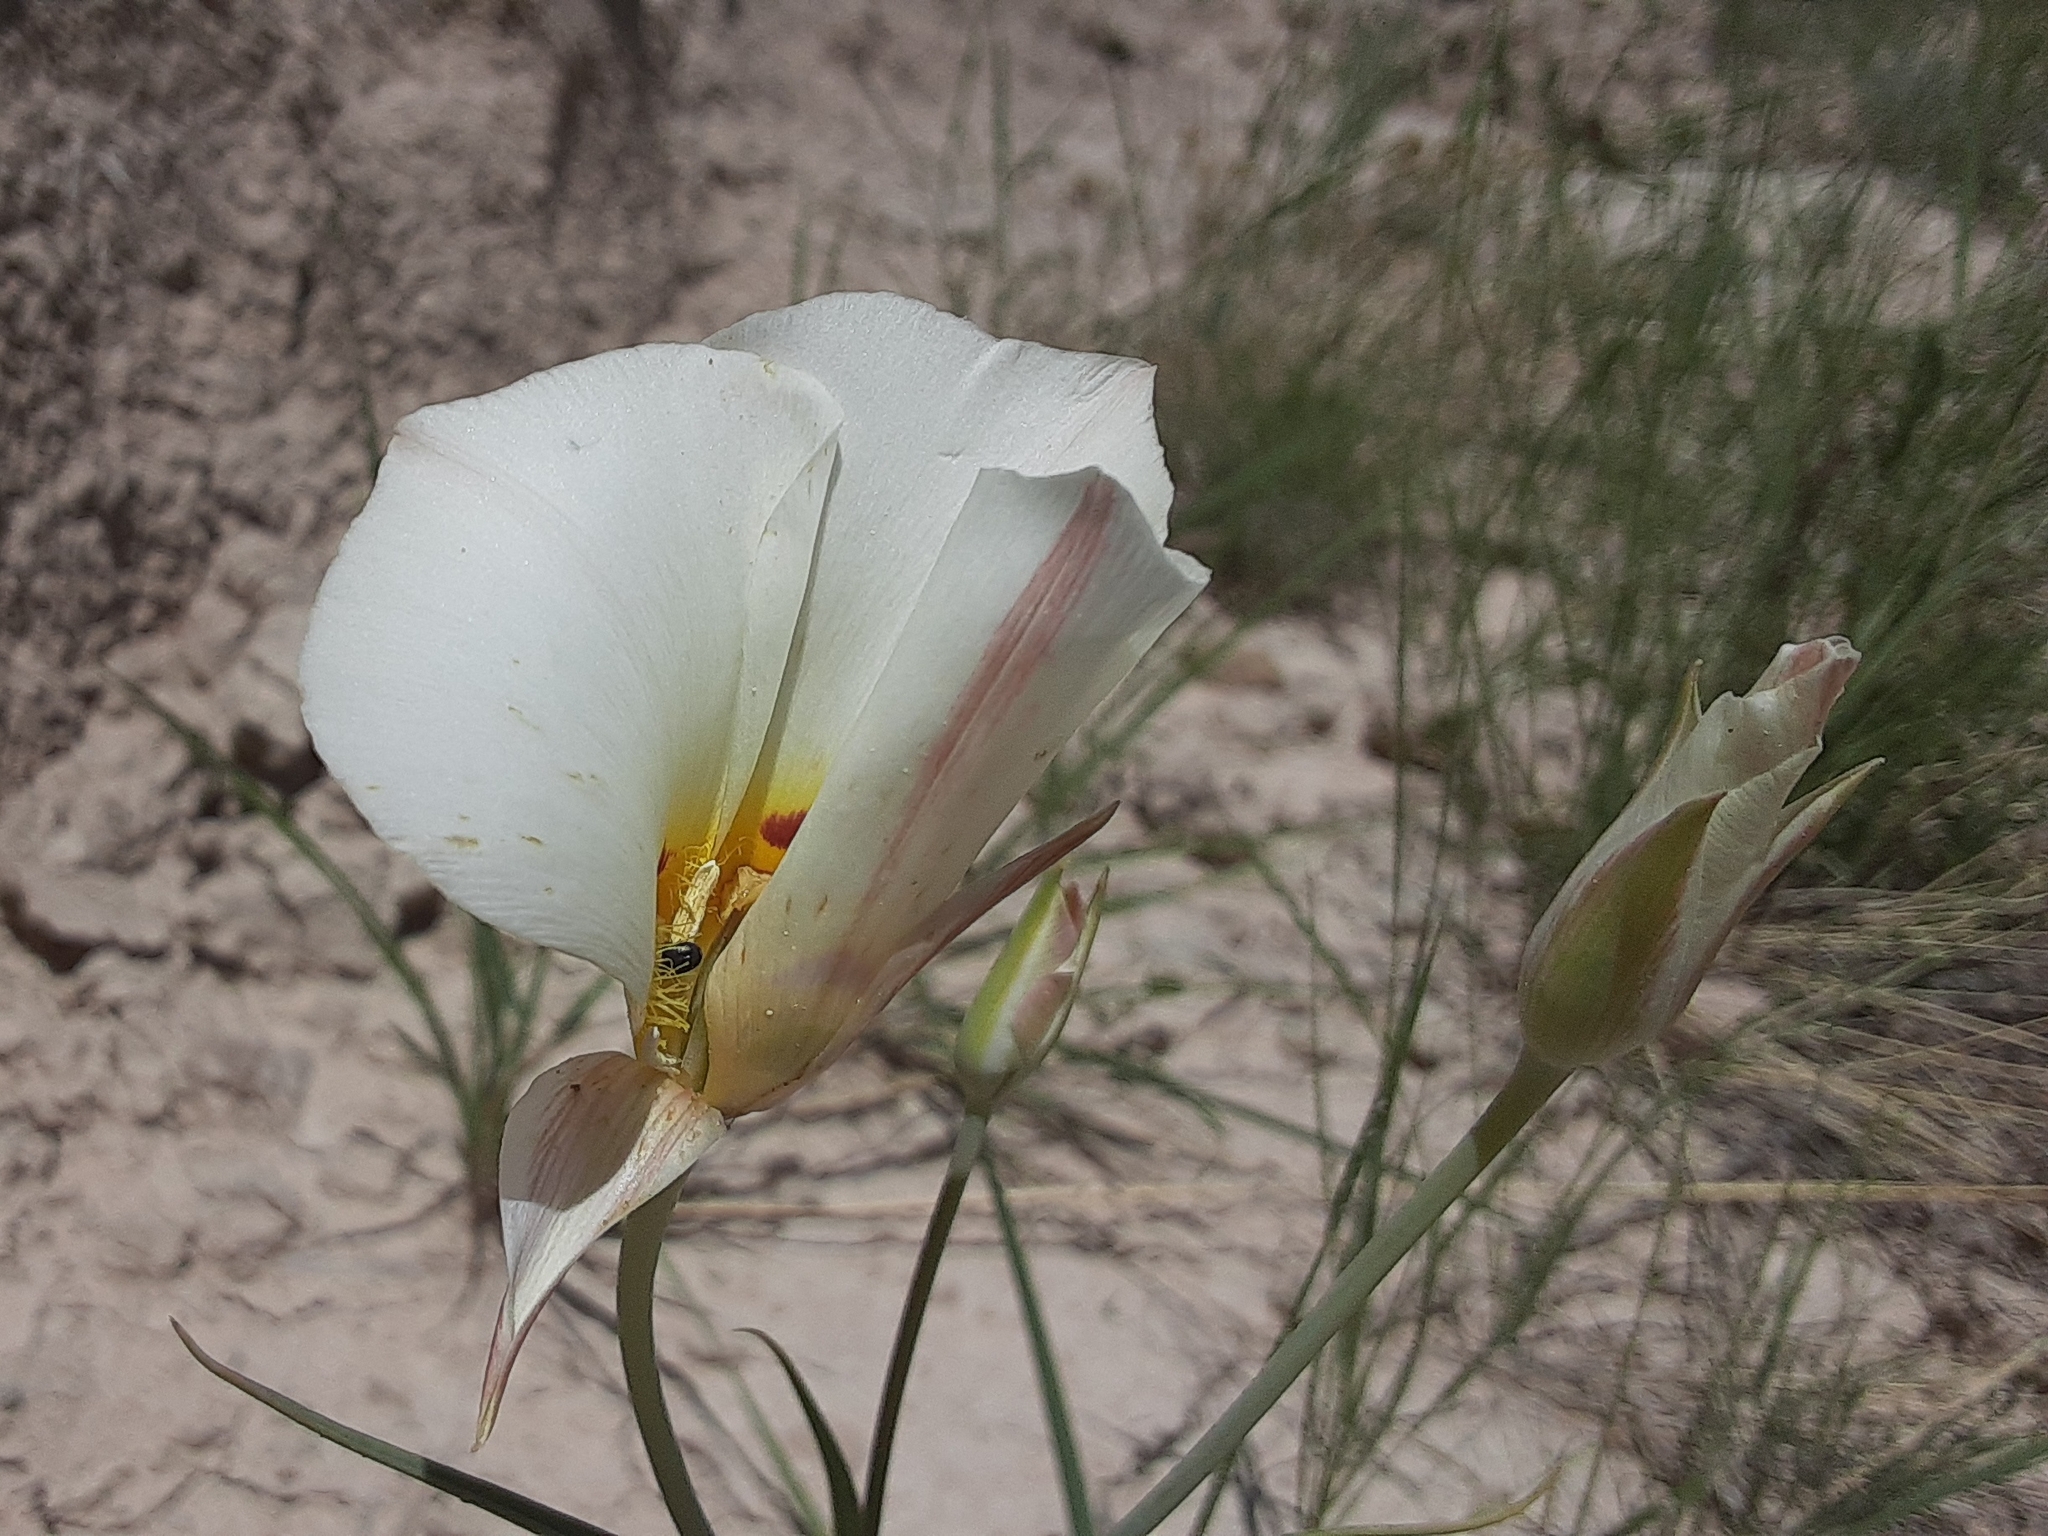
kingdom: Plantae
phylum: Tracheophyta
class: Liliopsida
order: Liliales
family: Liliaceae
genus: Calochortus
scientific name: Calochortus nuttallii
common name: Sego-lily
